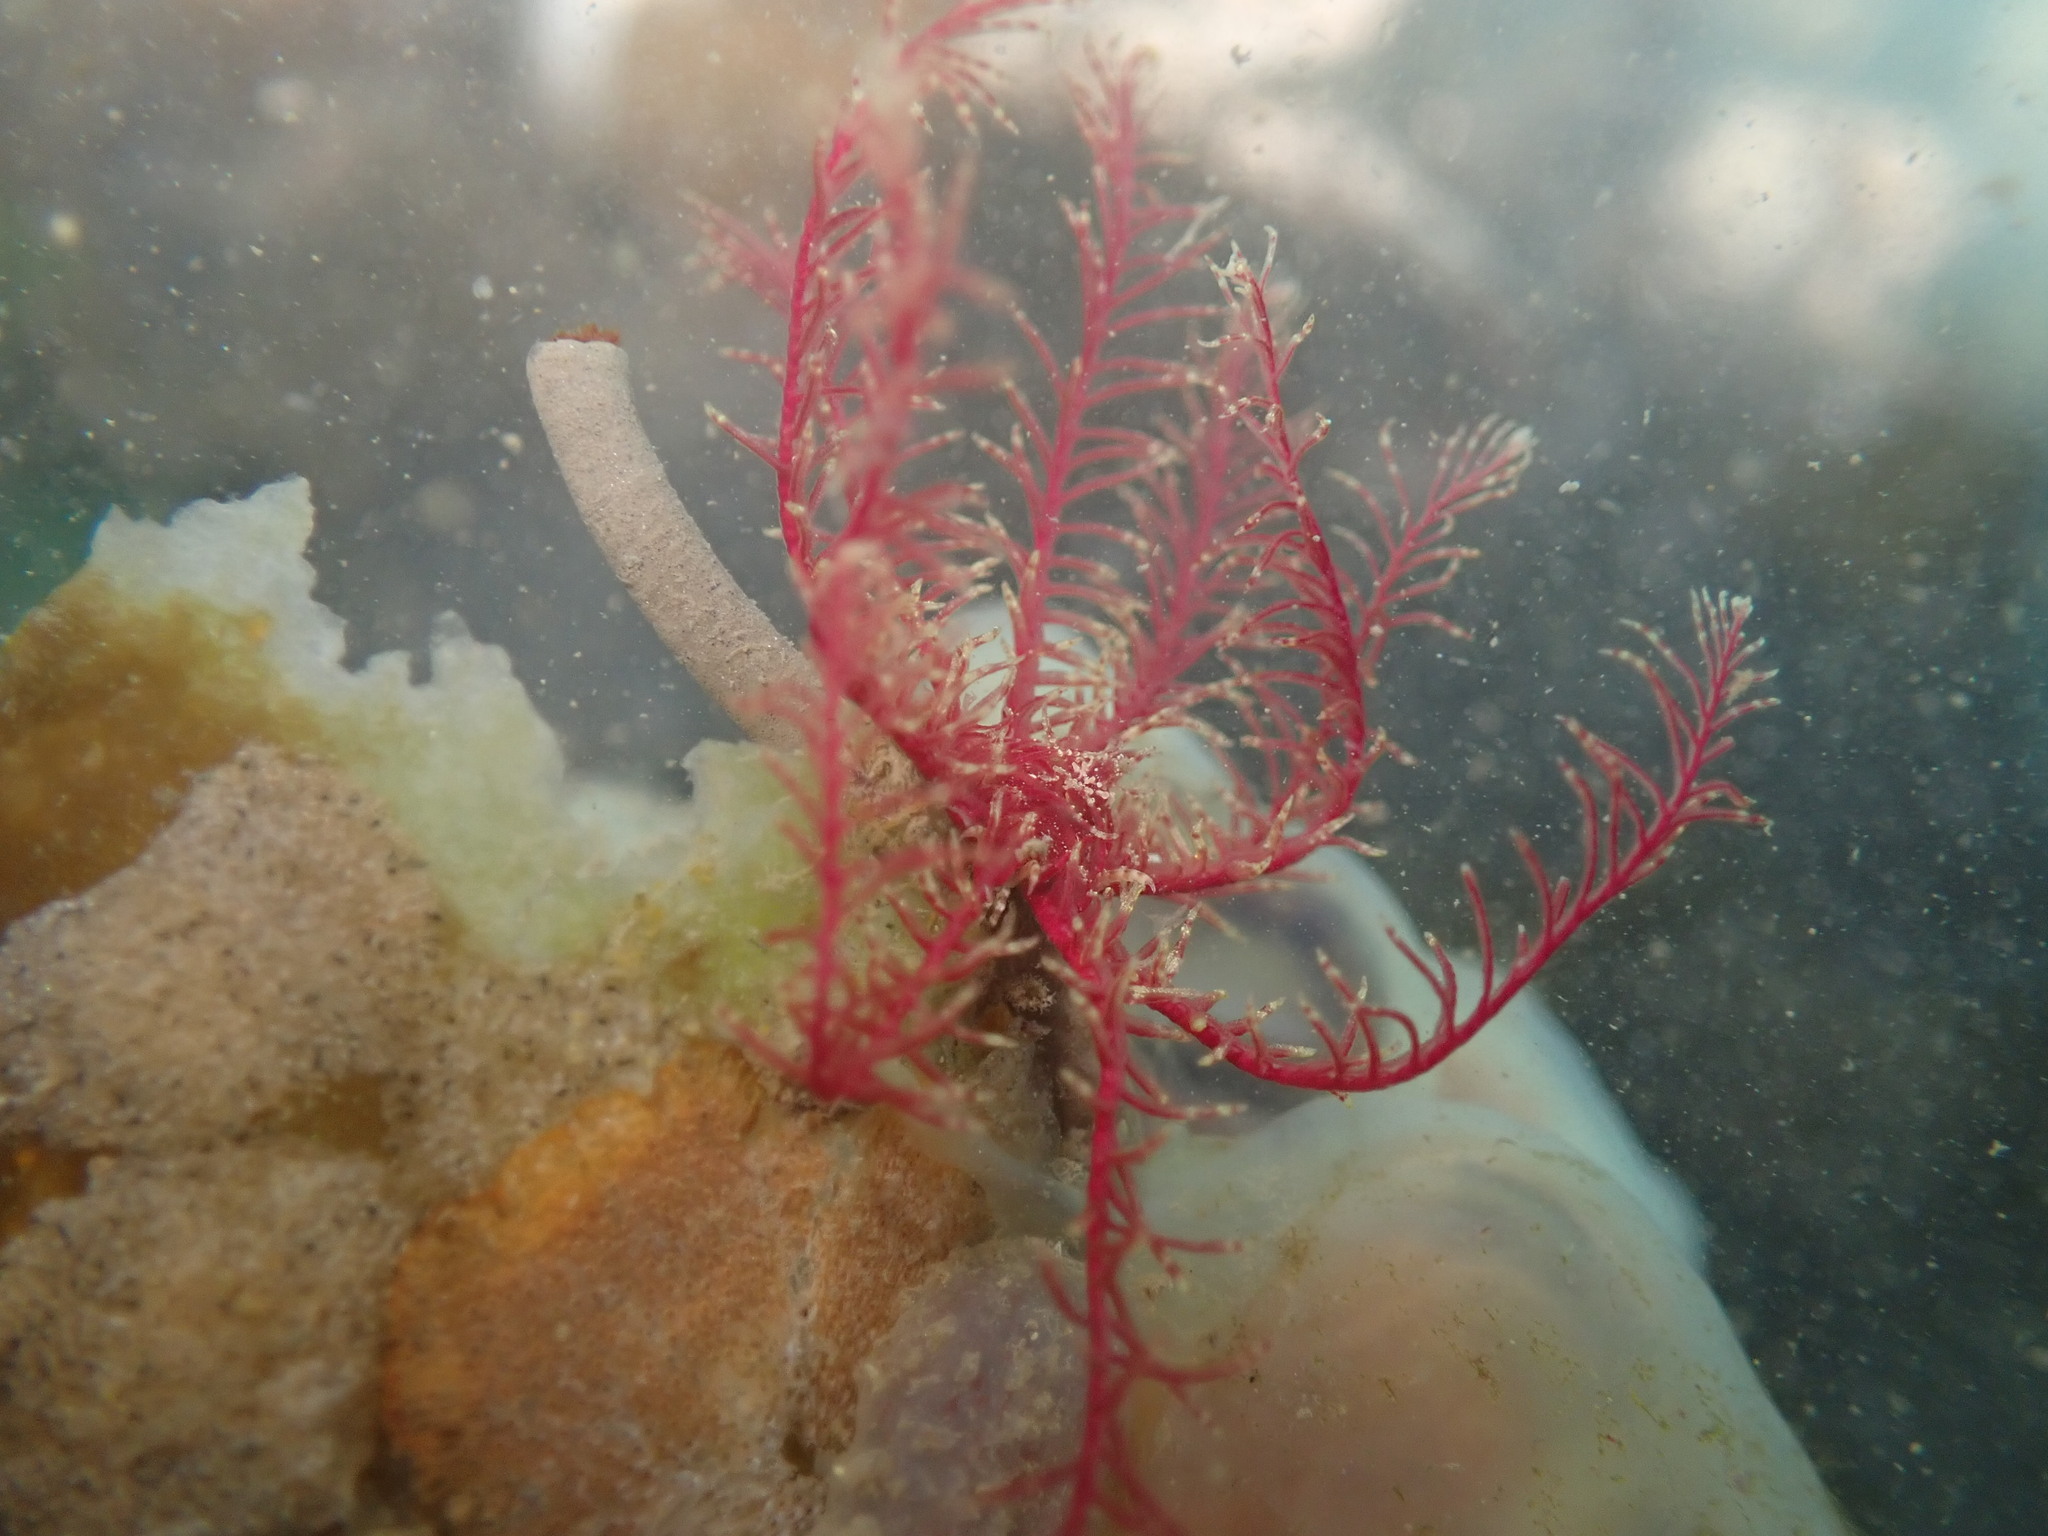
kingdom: Animalia
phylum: Echinodermata
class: Crinoidea
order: Comatulida
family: Antedonidae
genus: Antedon
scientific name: Antedon bifida
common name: Rosy feather-star
